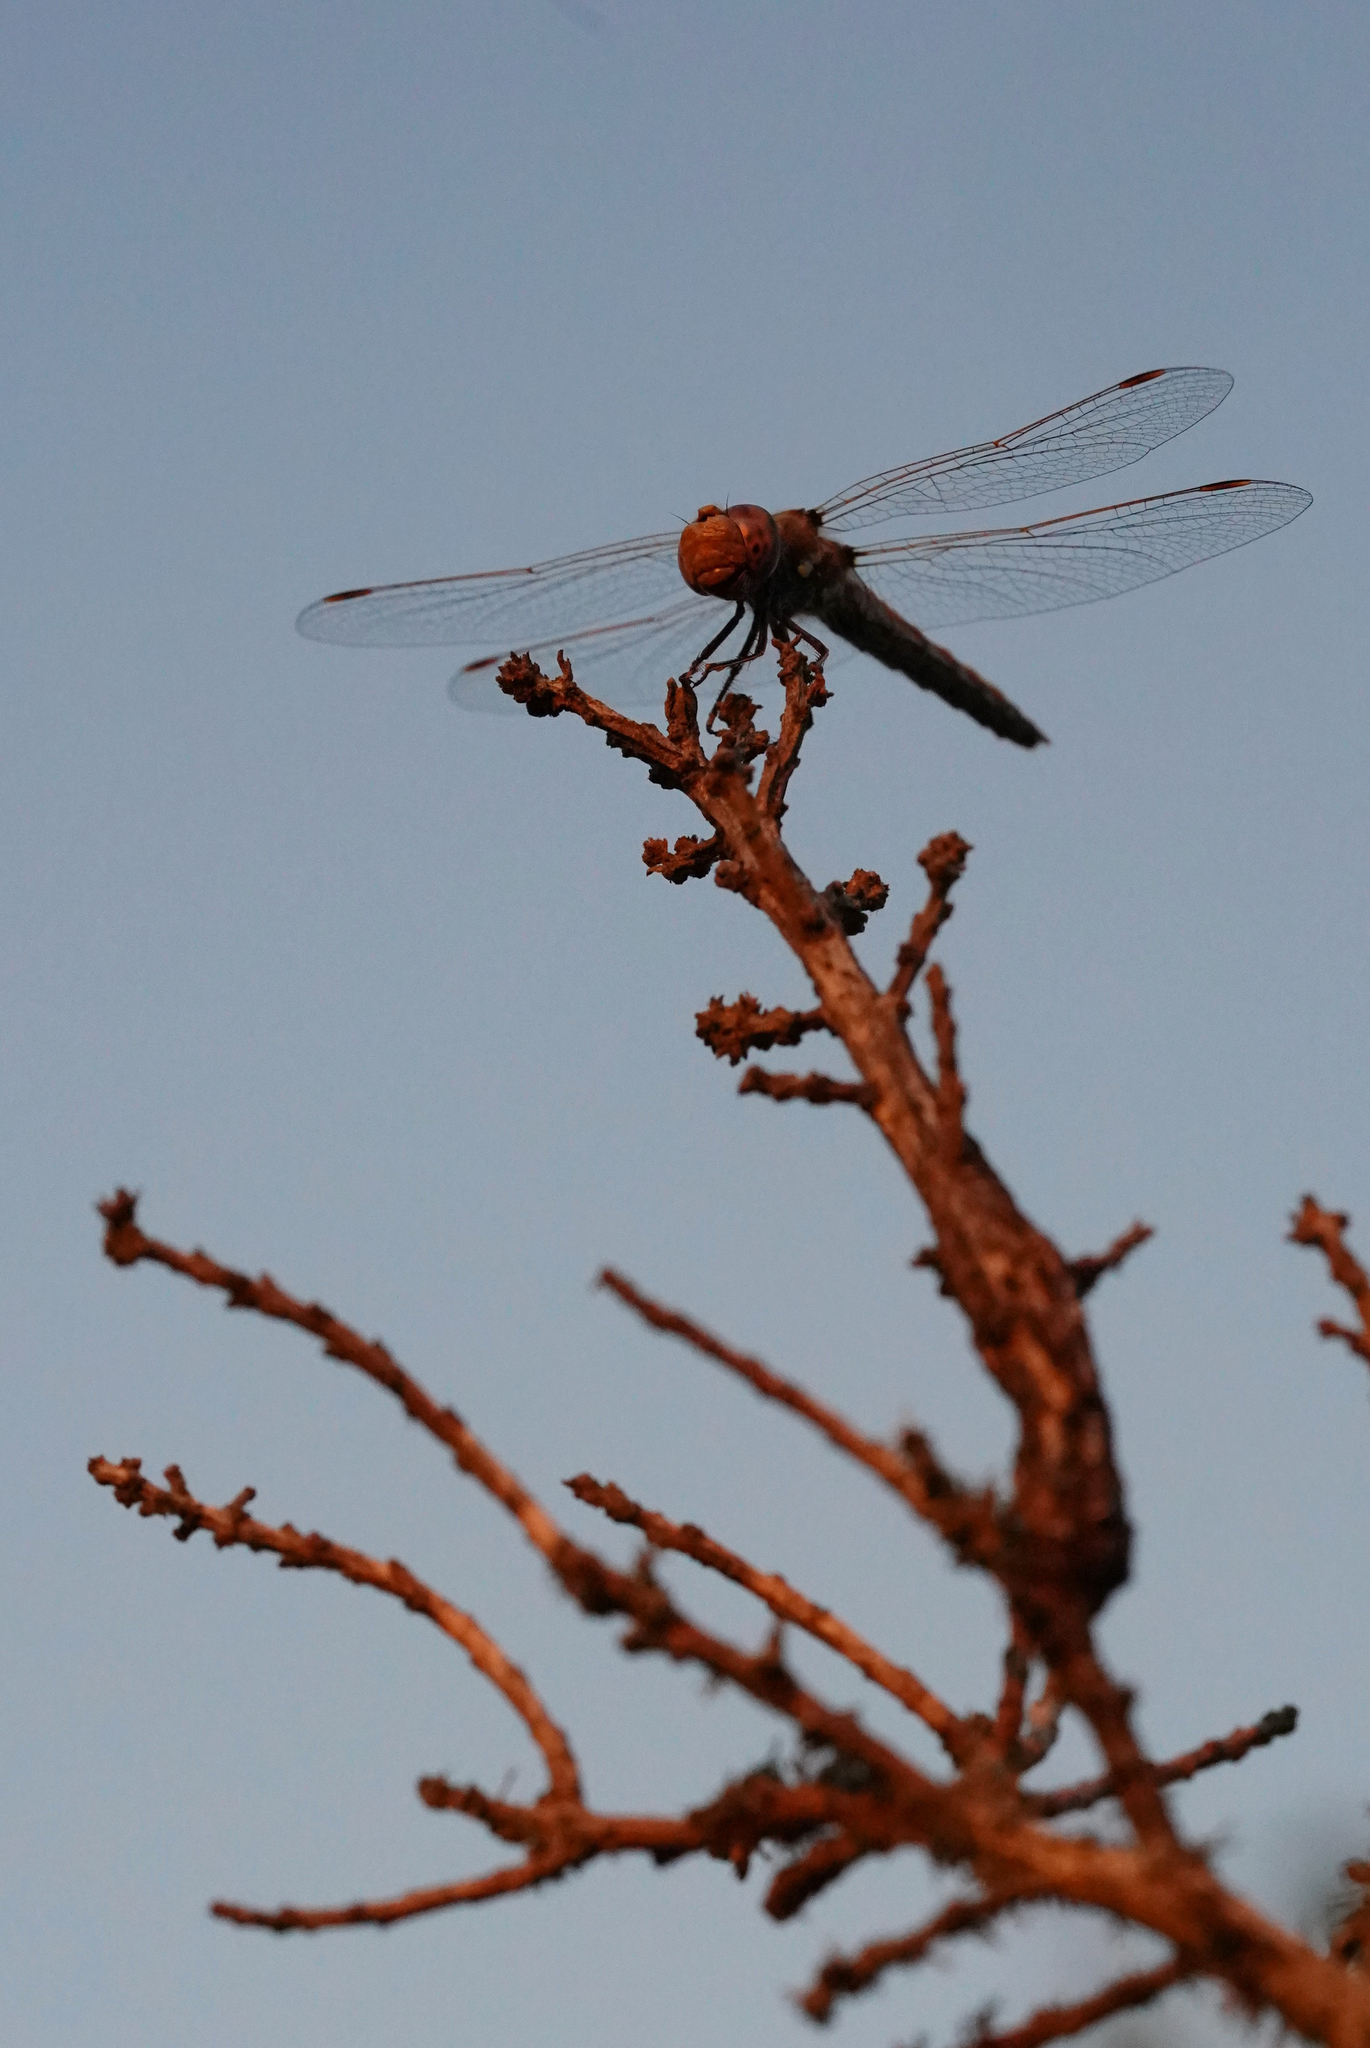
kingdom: Animalia
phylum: Arthropoda
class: Insecta
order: Odonata
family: Libellulidae
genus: Sympetrum
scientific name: Sympetrum corruptum
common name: Variegated meadowhawk
